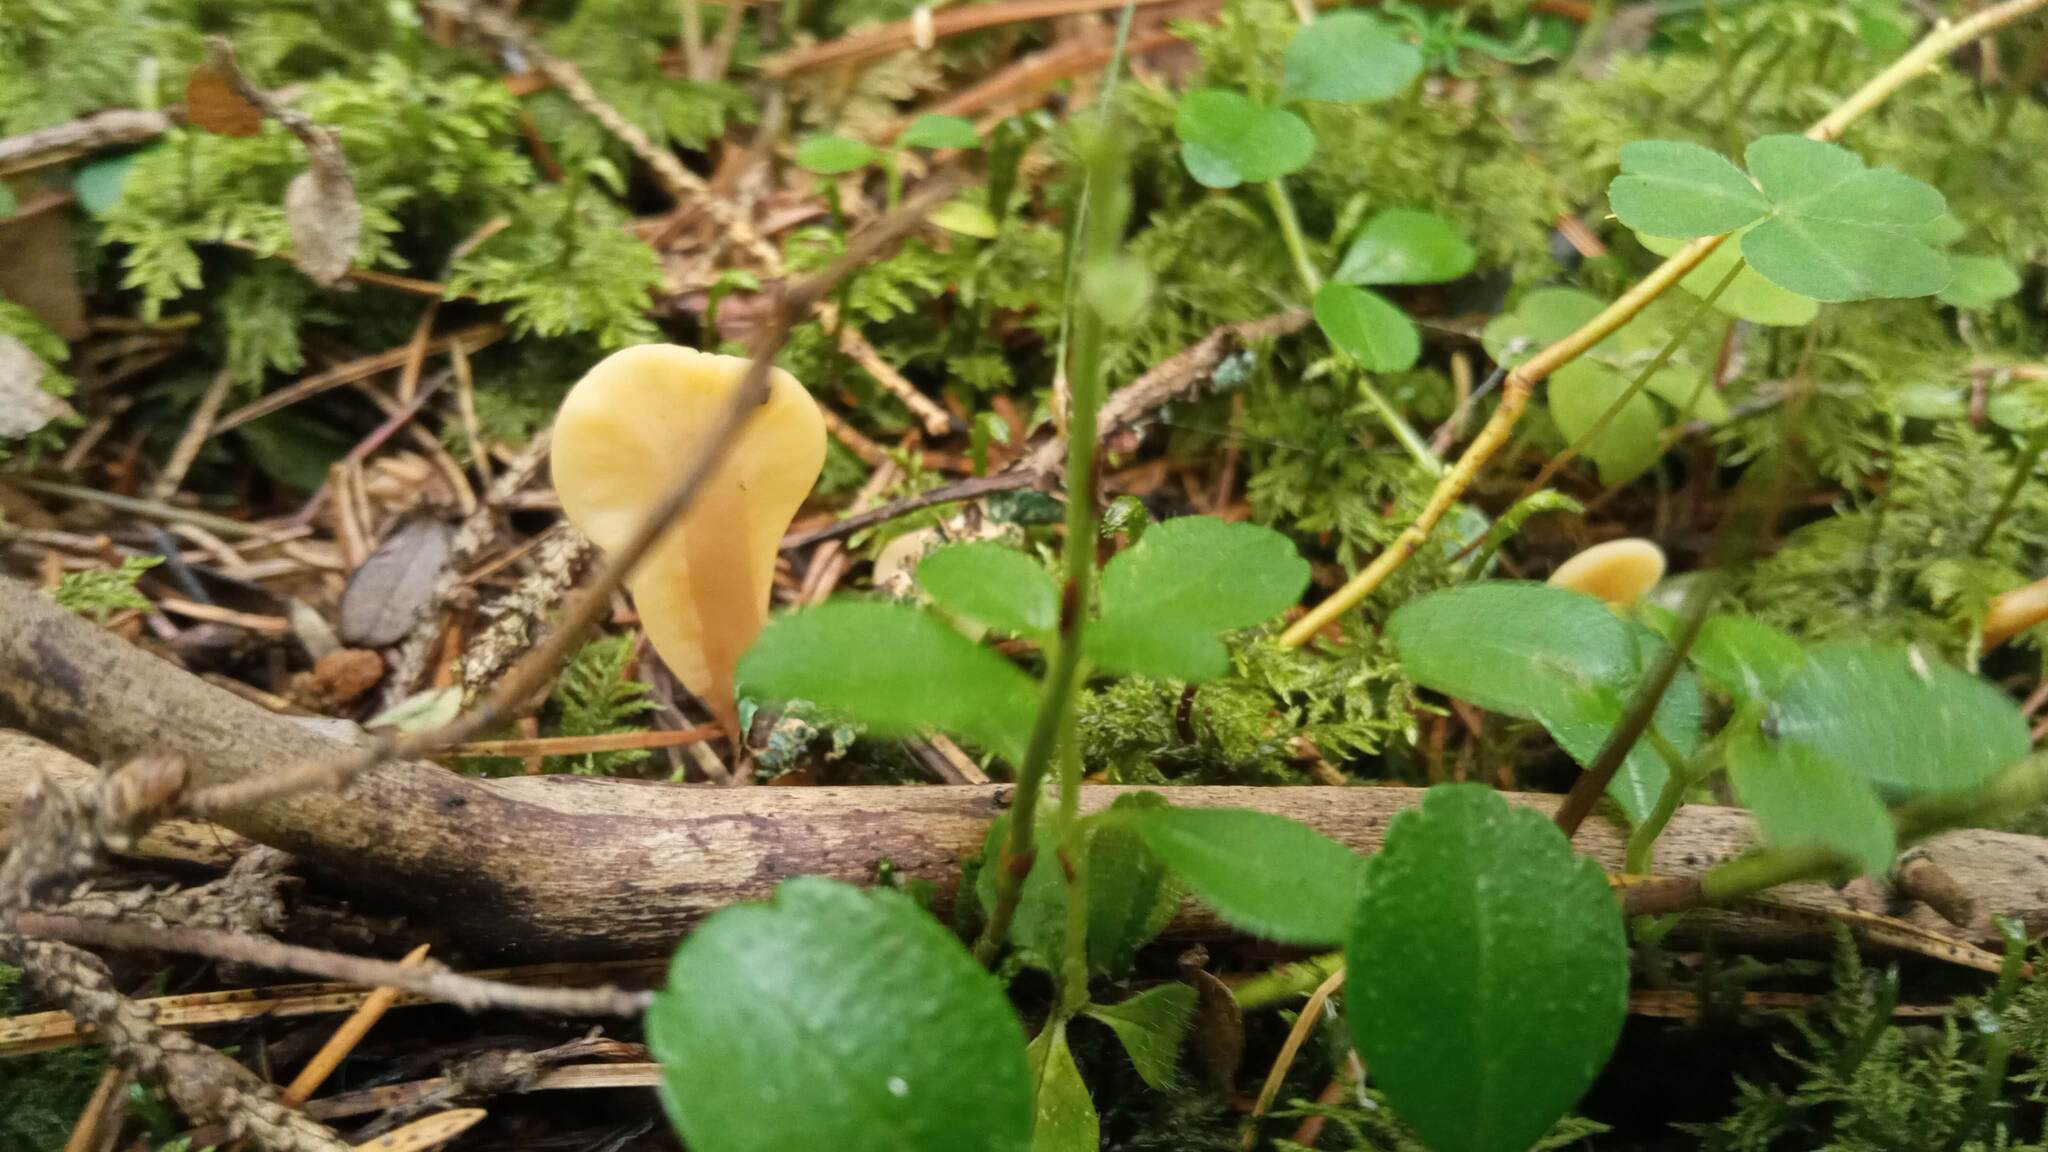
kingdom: Fungi
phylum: Ascomycota
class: Leotiomycetes
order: Rhytismatales
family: Cudoniaceae
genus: Spathularia
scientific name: Spathularia rufa
